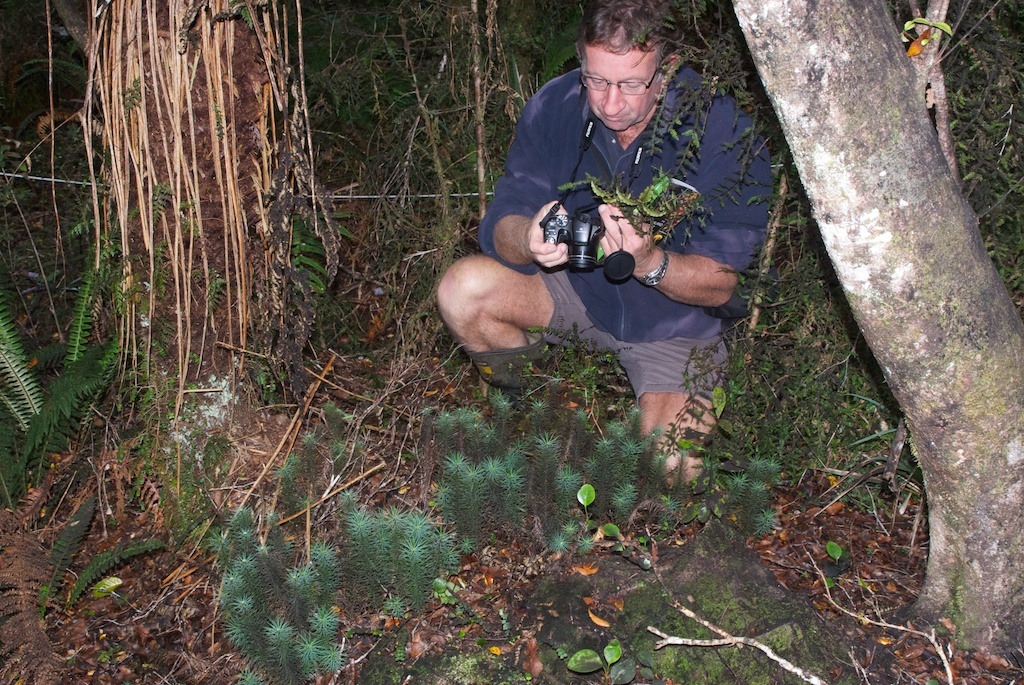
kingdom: Plantae
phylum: Bryophyta
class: Polytrichopsida
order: Polytrichales
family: Polytrichaceae
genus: Dawsonia
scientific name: Dawsonia superba
